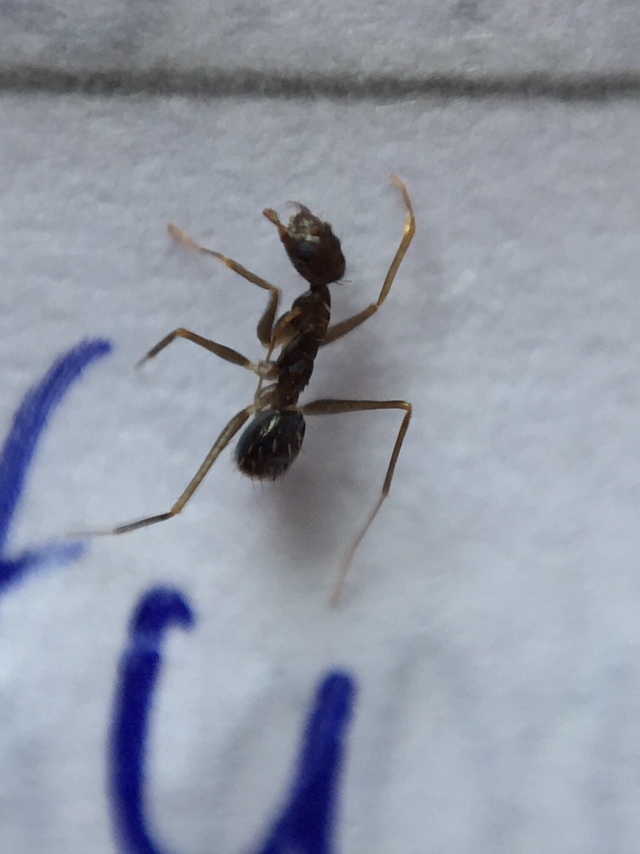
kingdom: Animalia
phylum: Arthropoda
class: Insecta
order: Hymenoptera
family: Formicidae
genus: Paratrechina
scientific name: Paratrechina longicornis
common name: Longhorned crazy ant
